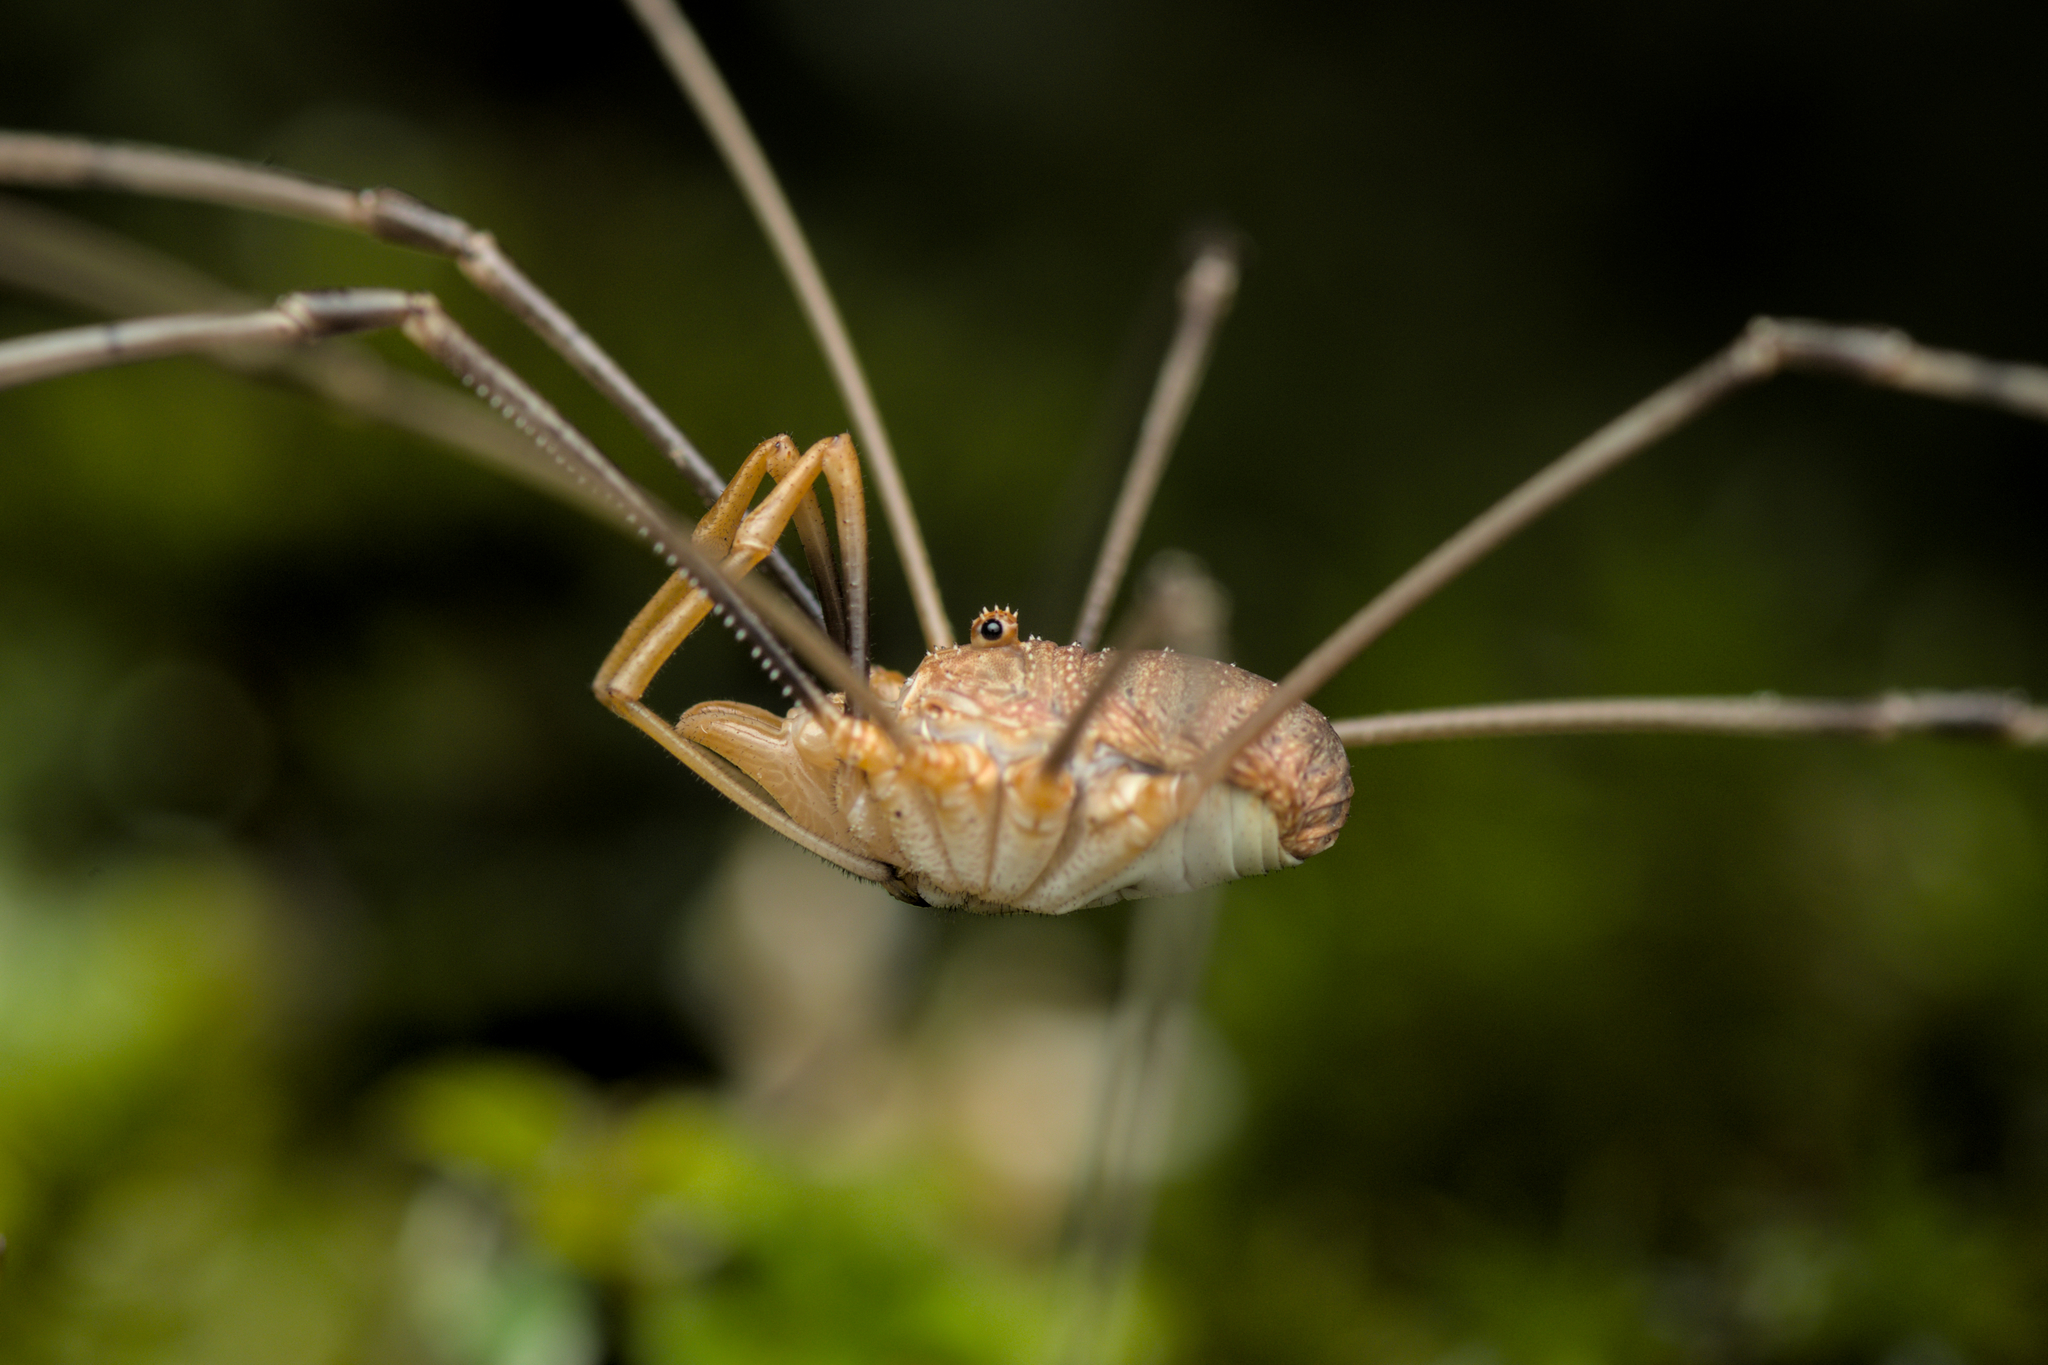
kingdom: Animalia
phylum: Arthropoda
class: Arachnida
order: Opiliones
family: Phalangiidae
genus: Phalangium
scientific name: Phalangium opilio
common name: Daddy longleg
